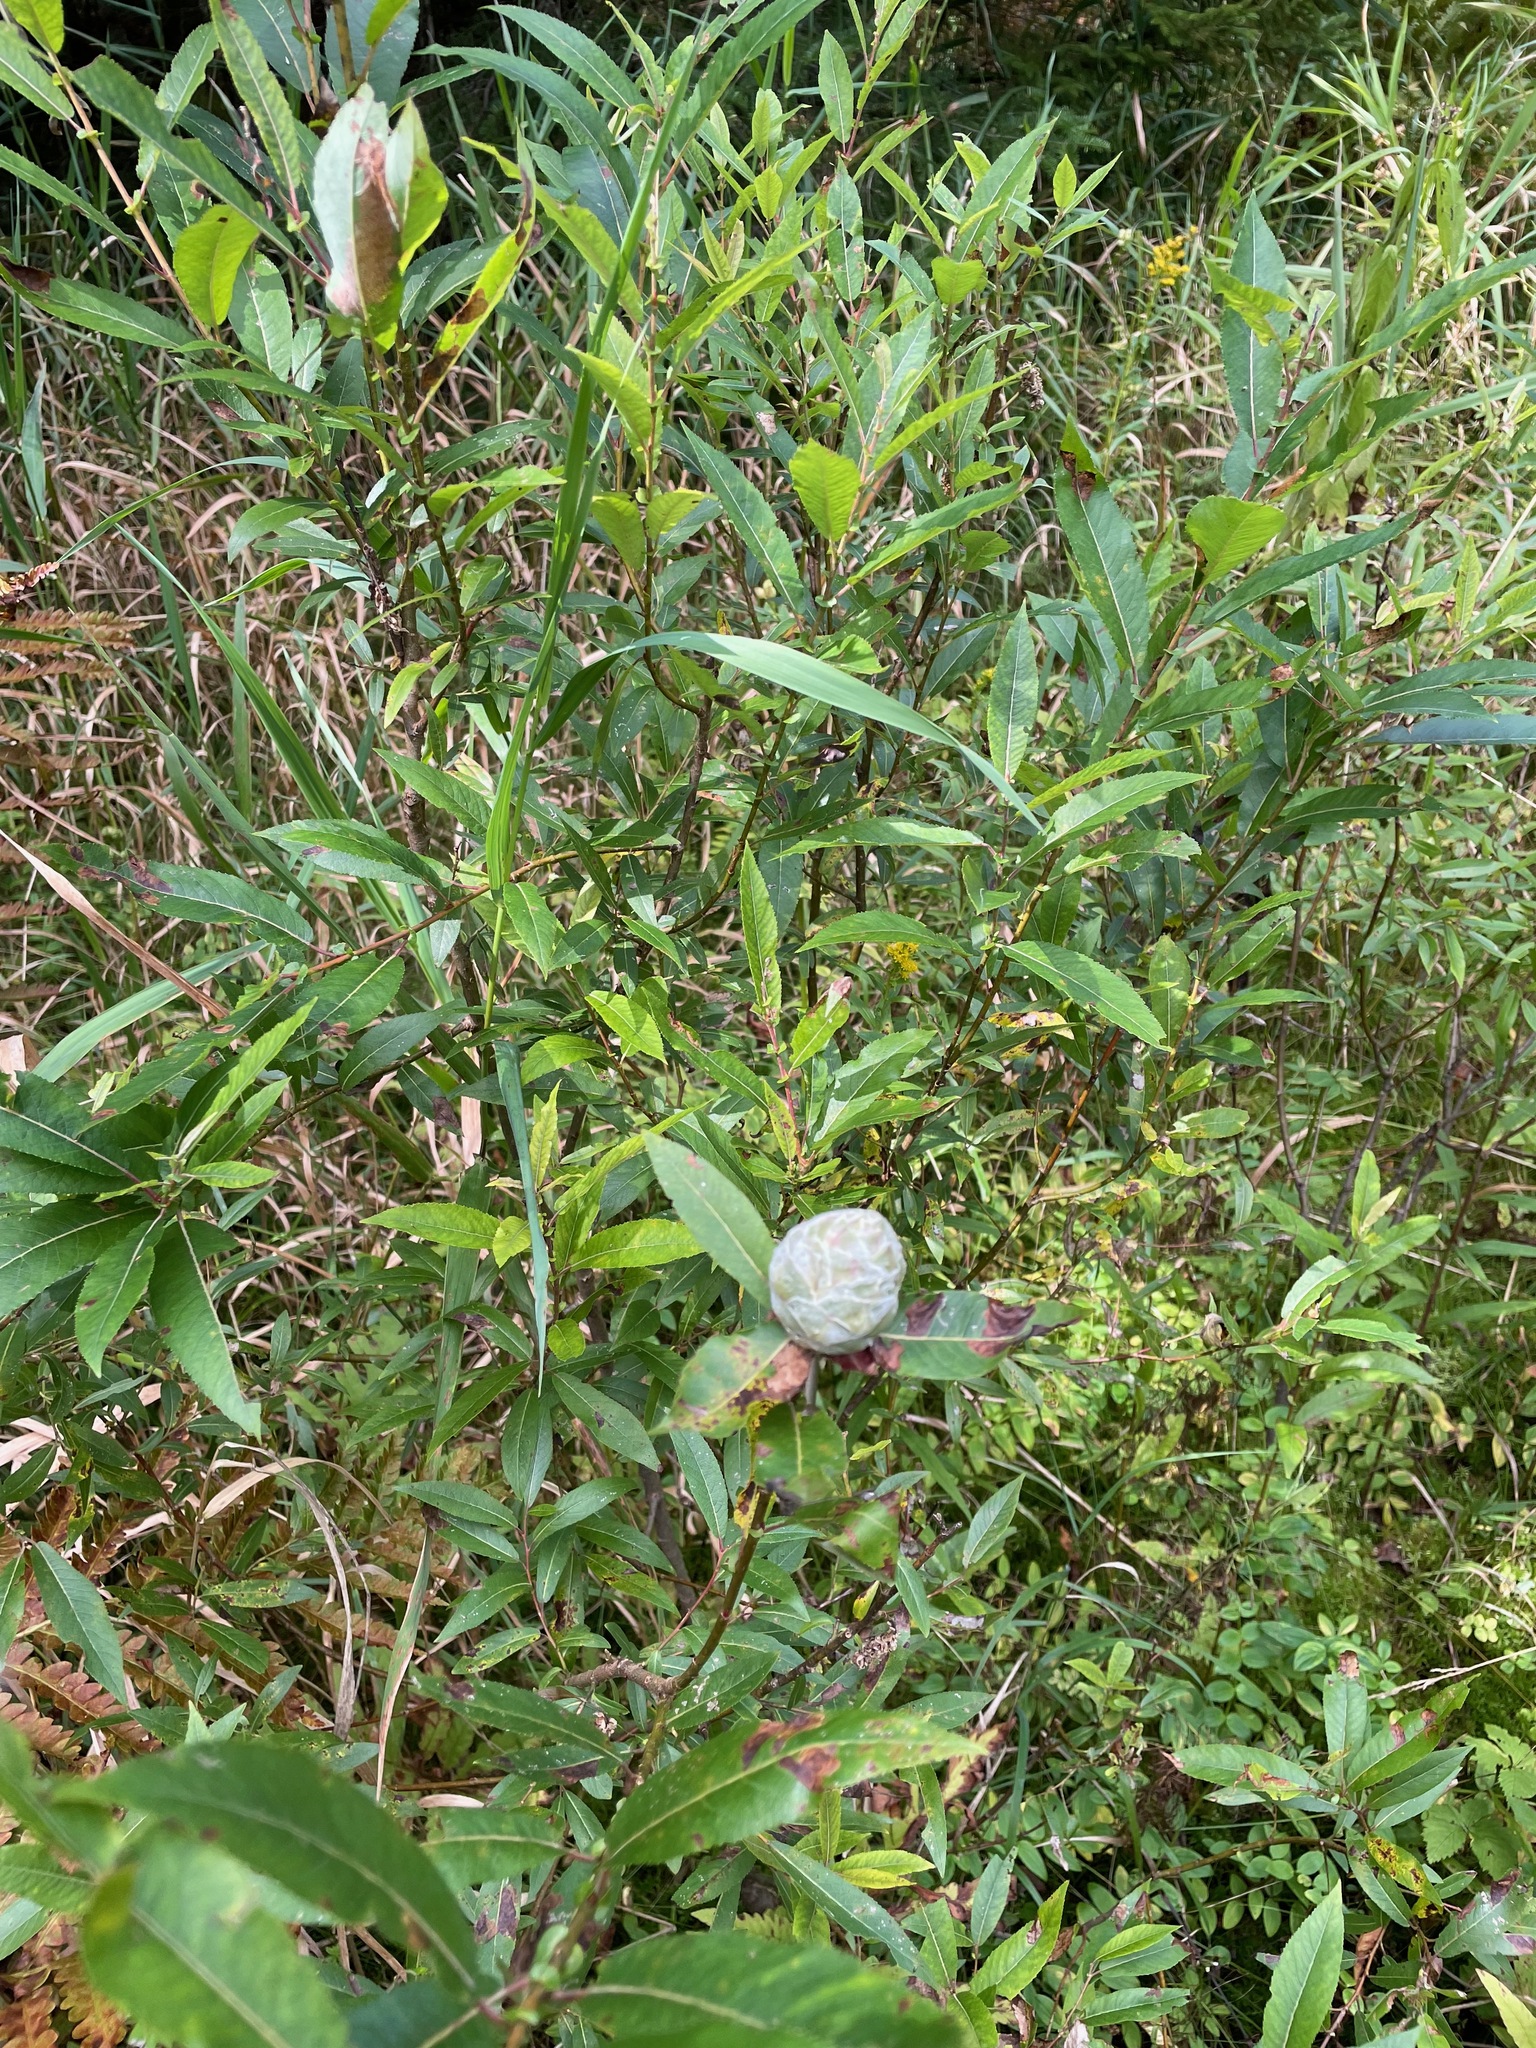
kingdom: Animalia
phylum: Arthropoda
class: Insecta
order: Diptera
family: Cecidomyiidae
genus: Rabdophaga
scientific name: Rabdophaga strobiloides
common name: Willow pinecone gall midge
